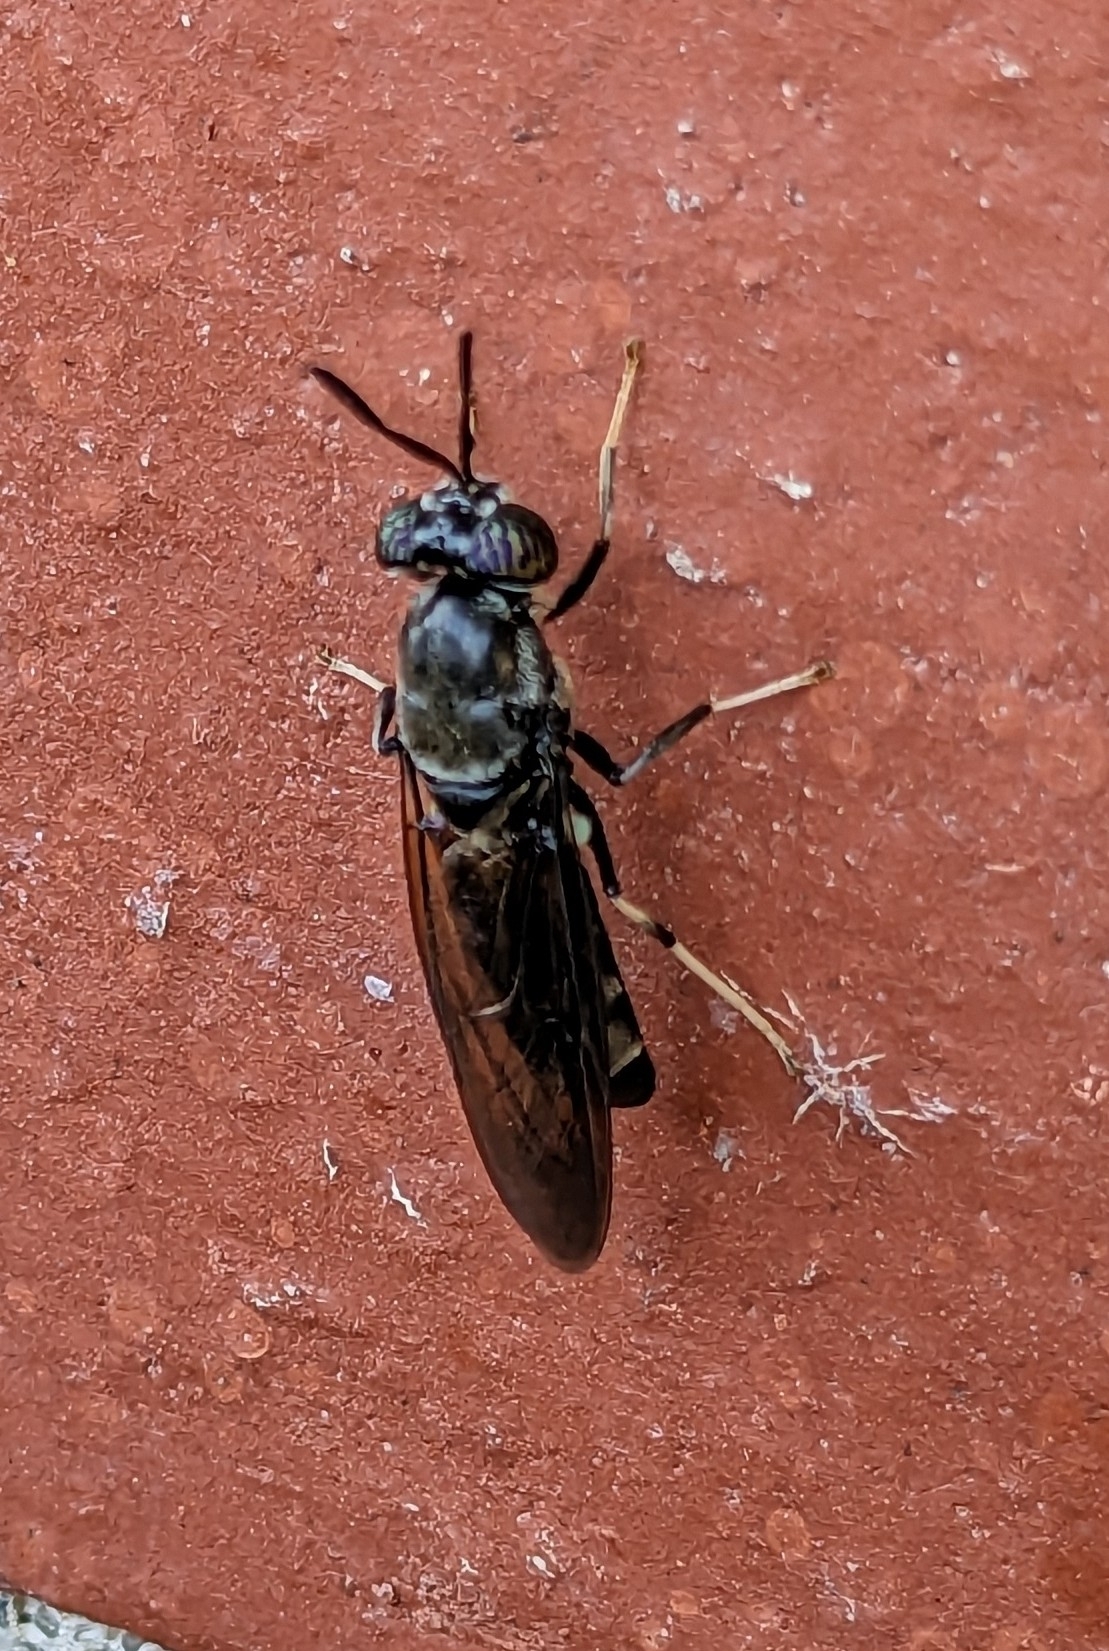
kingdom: Animalia
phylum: Arthropoda
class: Insecta
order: Diptera
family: Stratiomyidae
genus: Hermetia
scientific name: Hermetia illucens
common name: Black soldier fly
